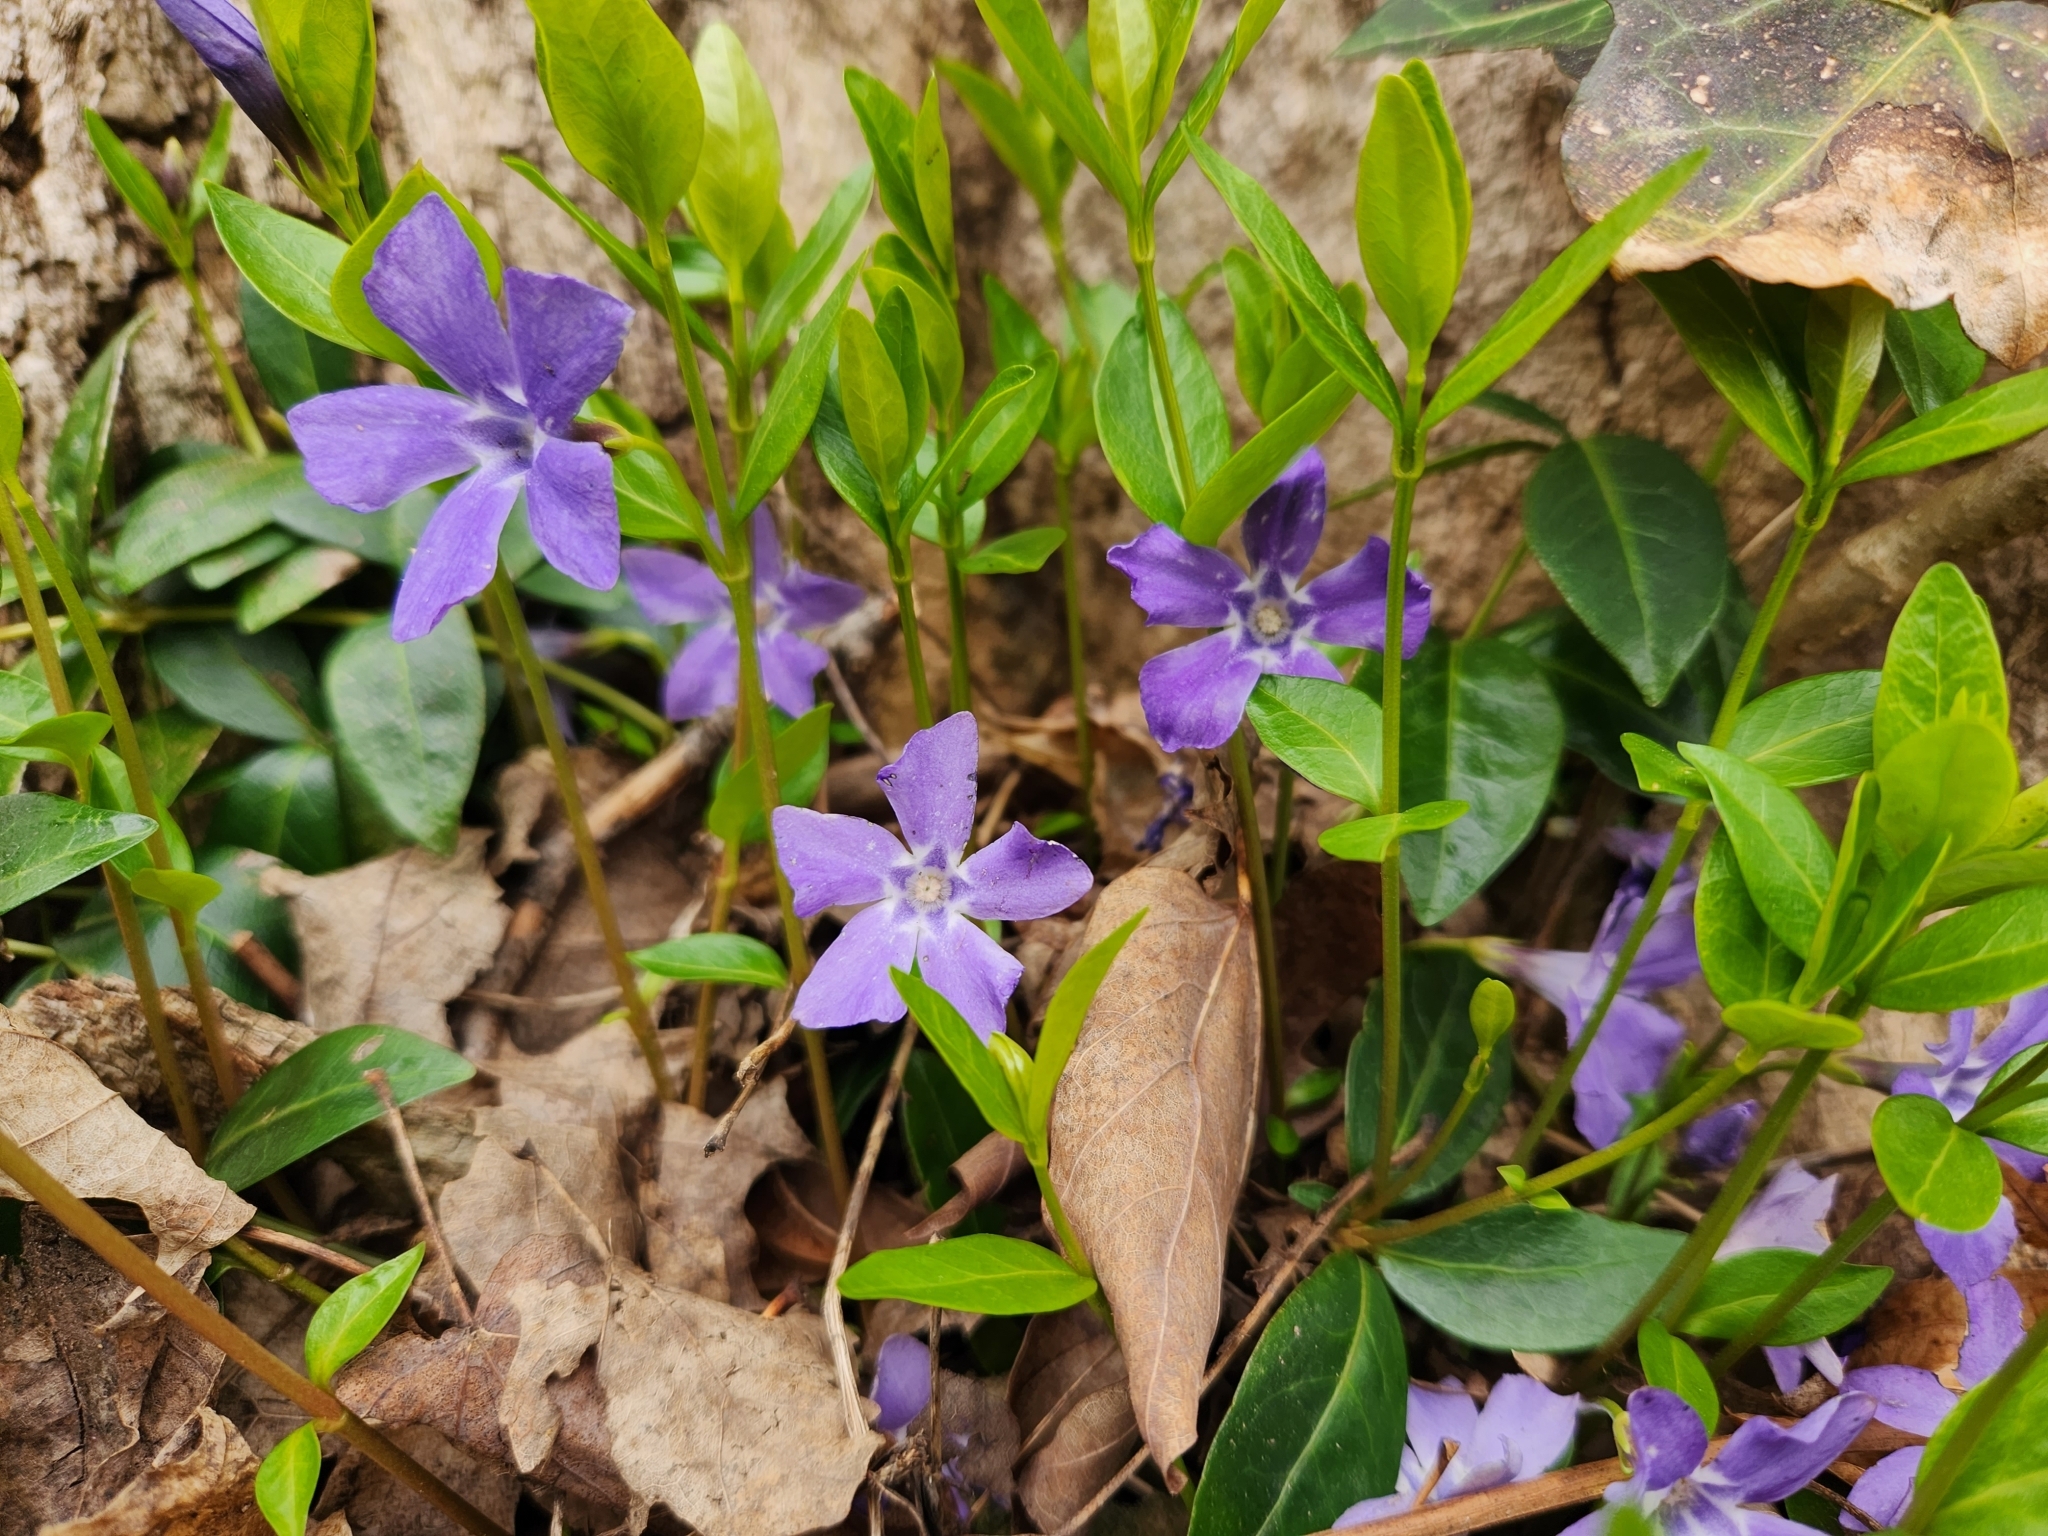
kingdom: Plantae
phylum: Tracheophyta
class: Magnoliopsida
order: Gentianales
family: Apocynaceae
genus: Vinca
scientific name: Vinca minor
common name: Lesser periwinkle
